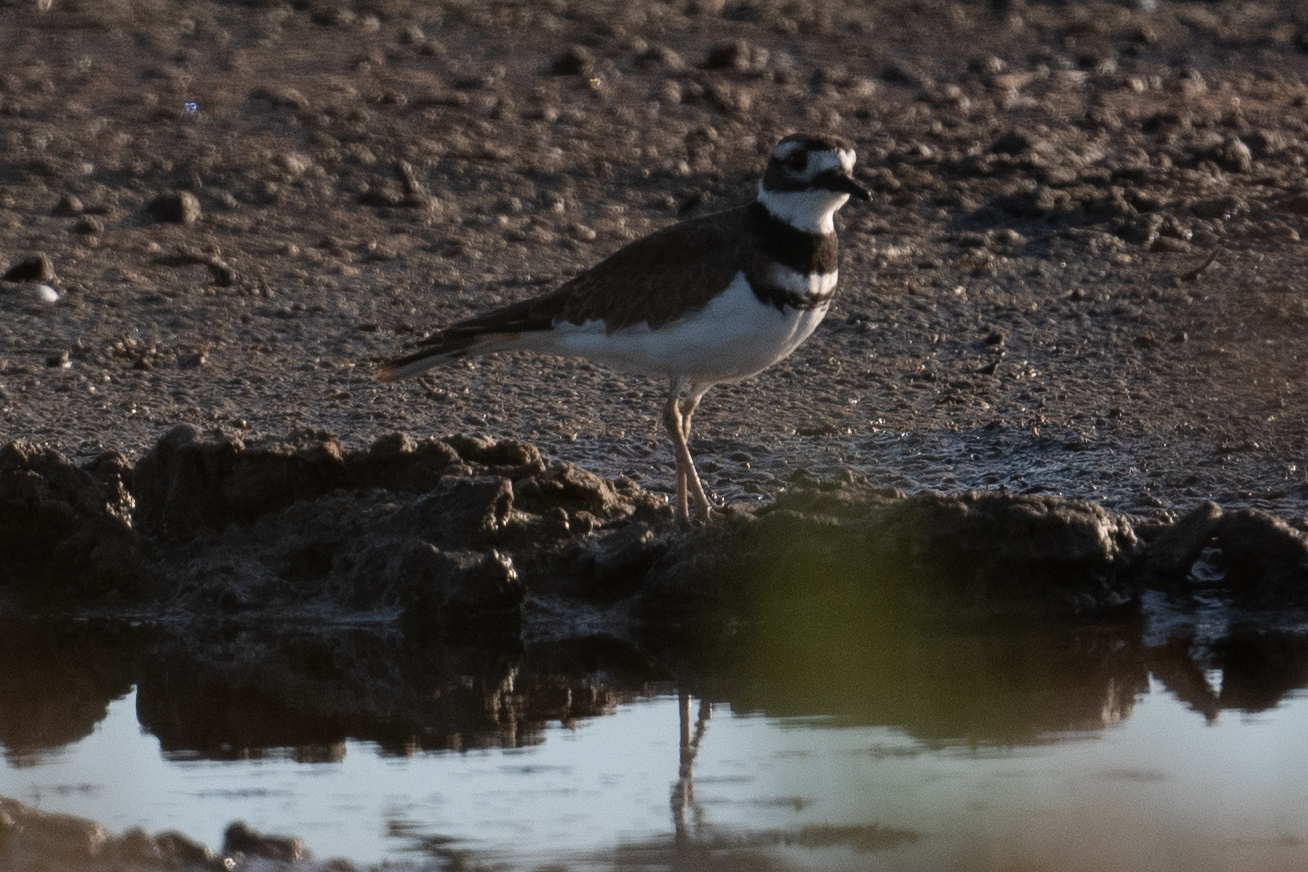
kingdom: Animalia
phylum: Chordata
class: Aves
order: Charadriiformes
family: Charadriidae
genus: Charadrius
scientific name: Charadrius vociferus
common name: Killdeer
